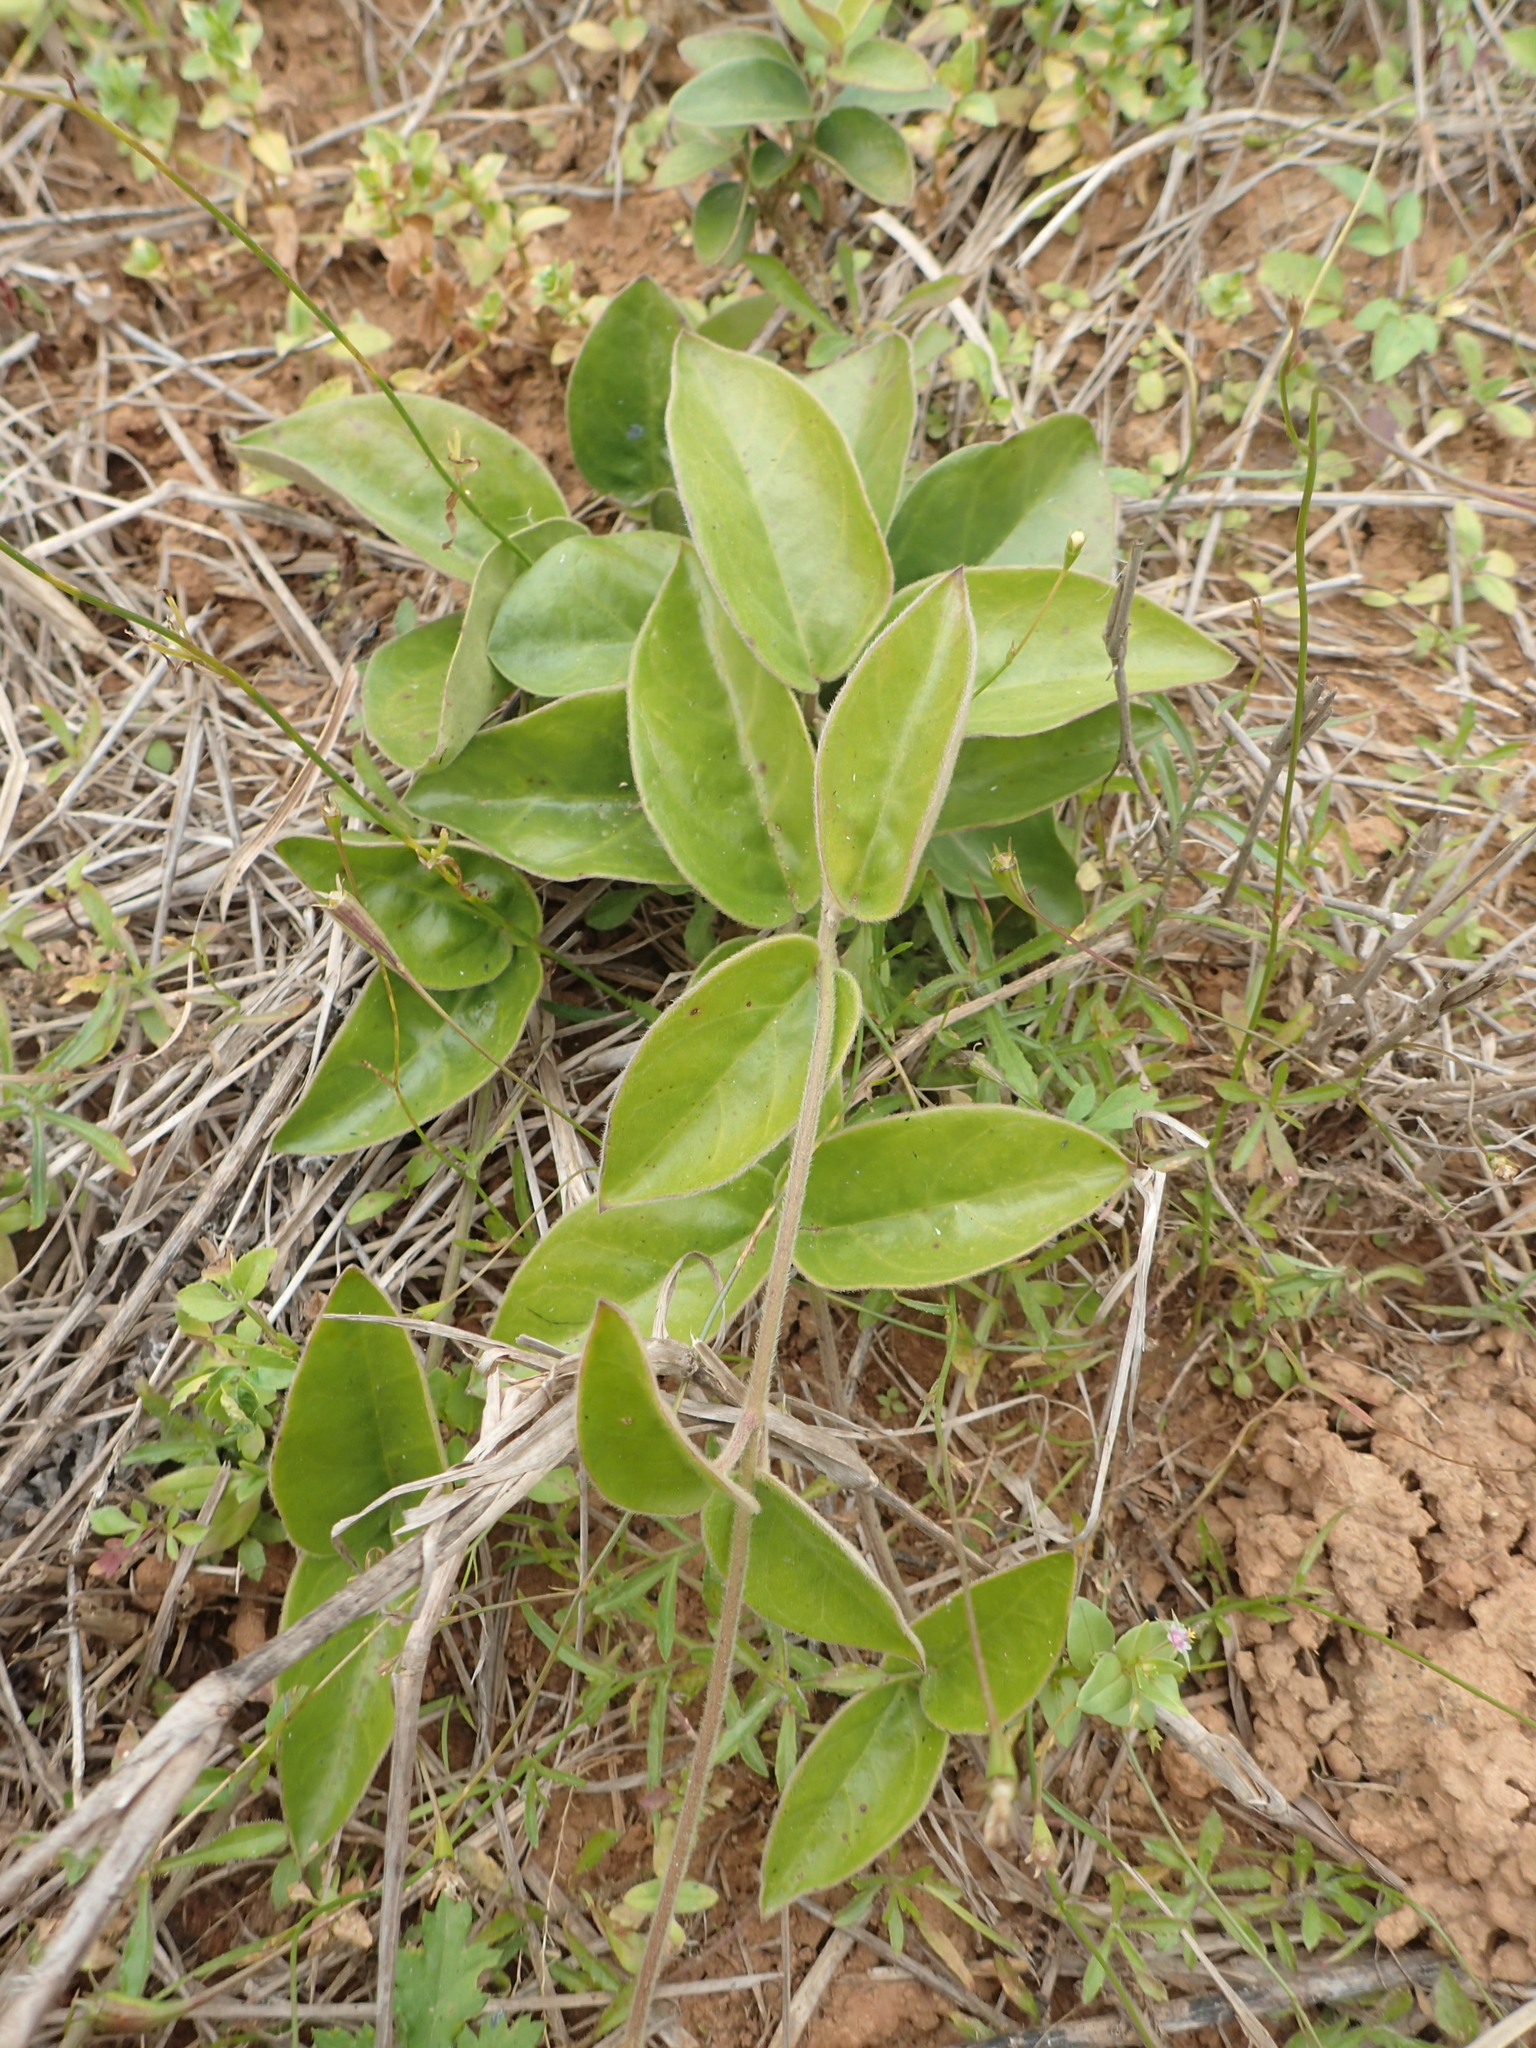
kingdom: Plantae
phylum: Tracheophyta
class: Magnoliopsida
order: Gentianales
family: Apocynaceae
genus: Vincetoxicum
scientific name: Vincetoxicum hirsutum
